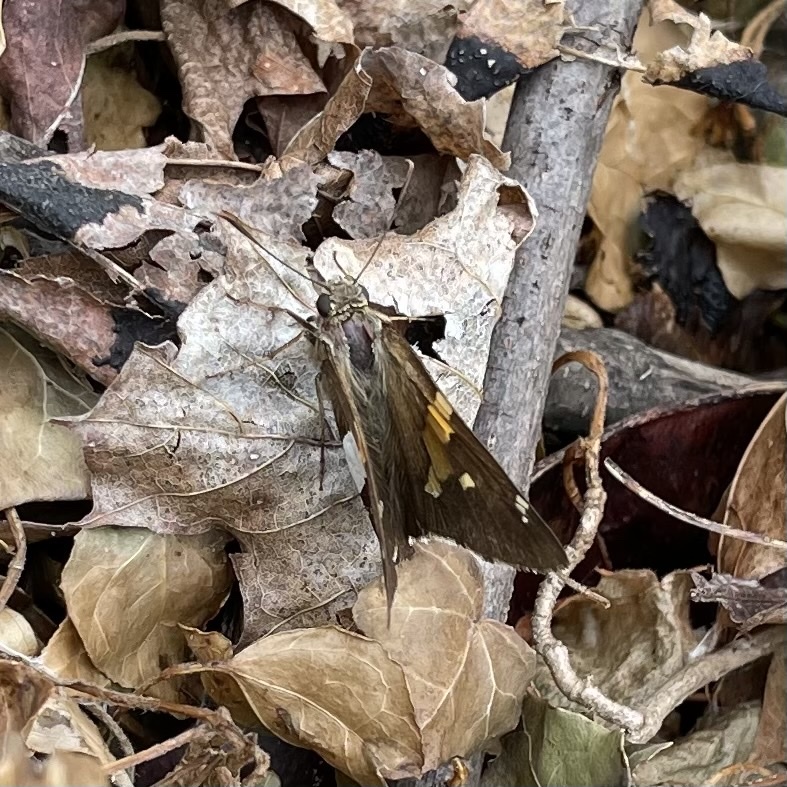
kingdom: Animalia
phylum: Arthropoda
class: Insecta
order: Lepidoptera
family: Hesperiidae
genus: Epargyreus
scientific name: Epargyreus clarus
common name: Silver-spotted skipper
